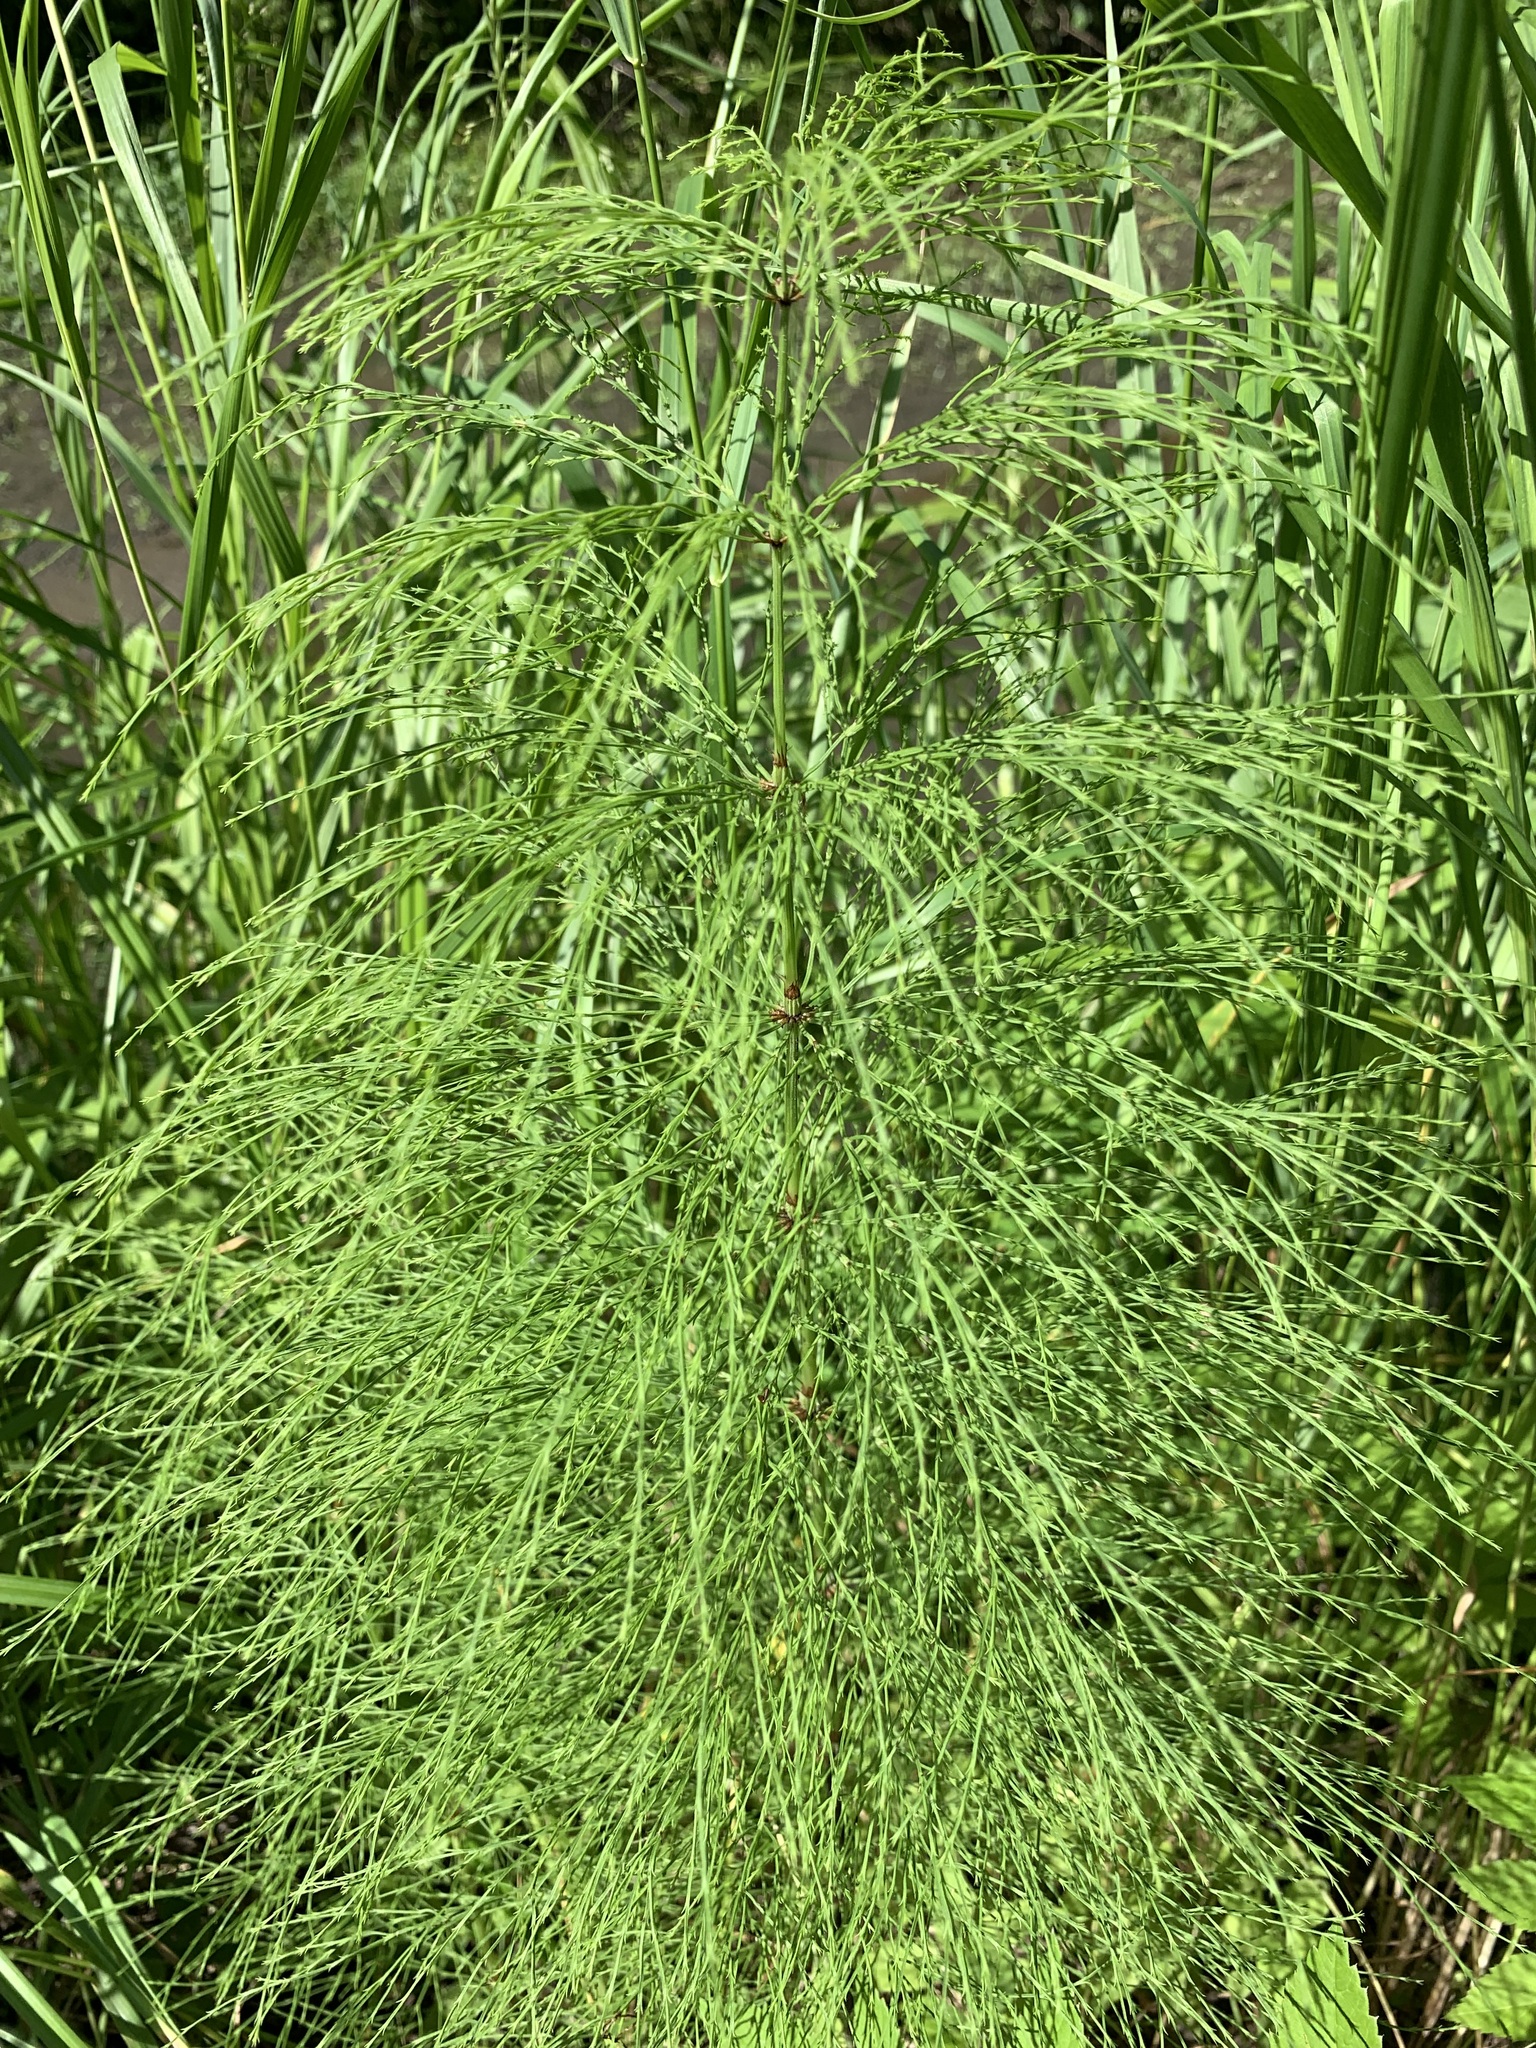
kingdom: Plantae
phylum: Tracheophyta
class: Polypodiopsida
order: Equisetales
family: Equisetaceae
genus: Equisetum
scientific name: Equisetum sylvaticum
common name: Wood horsetail
